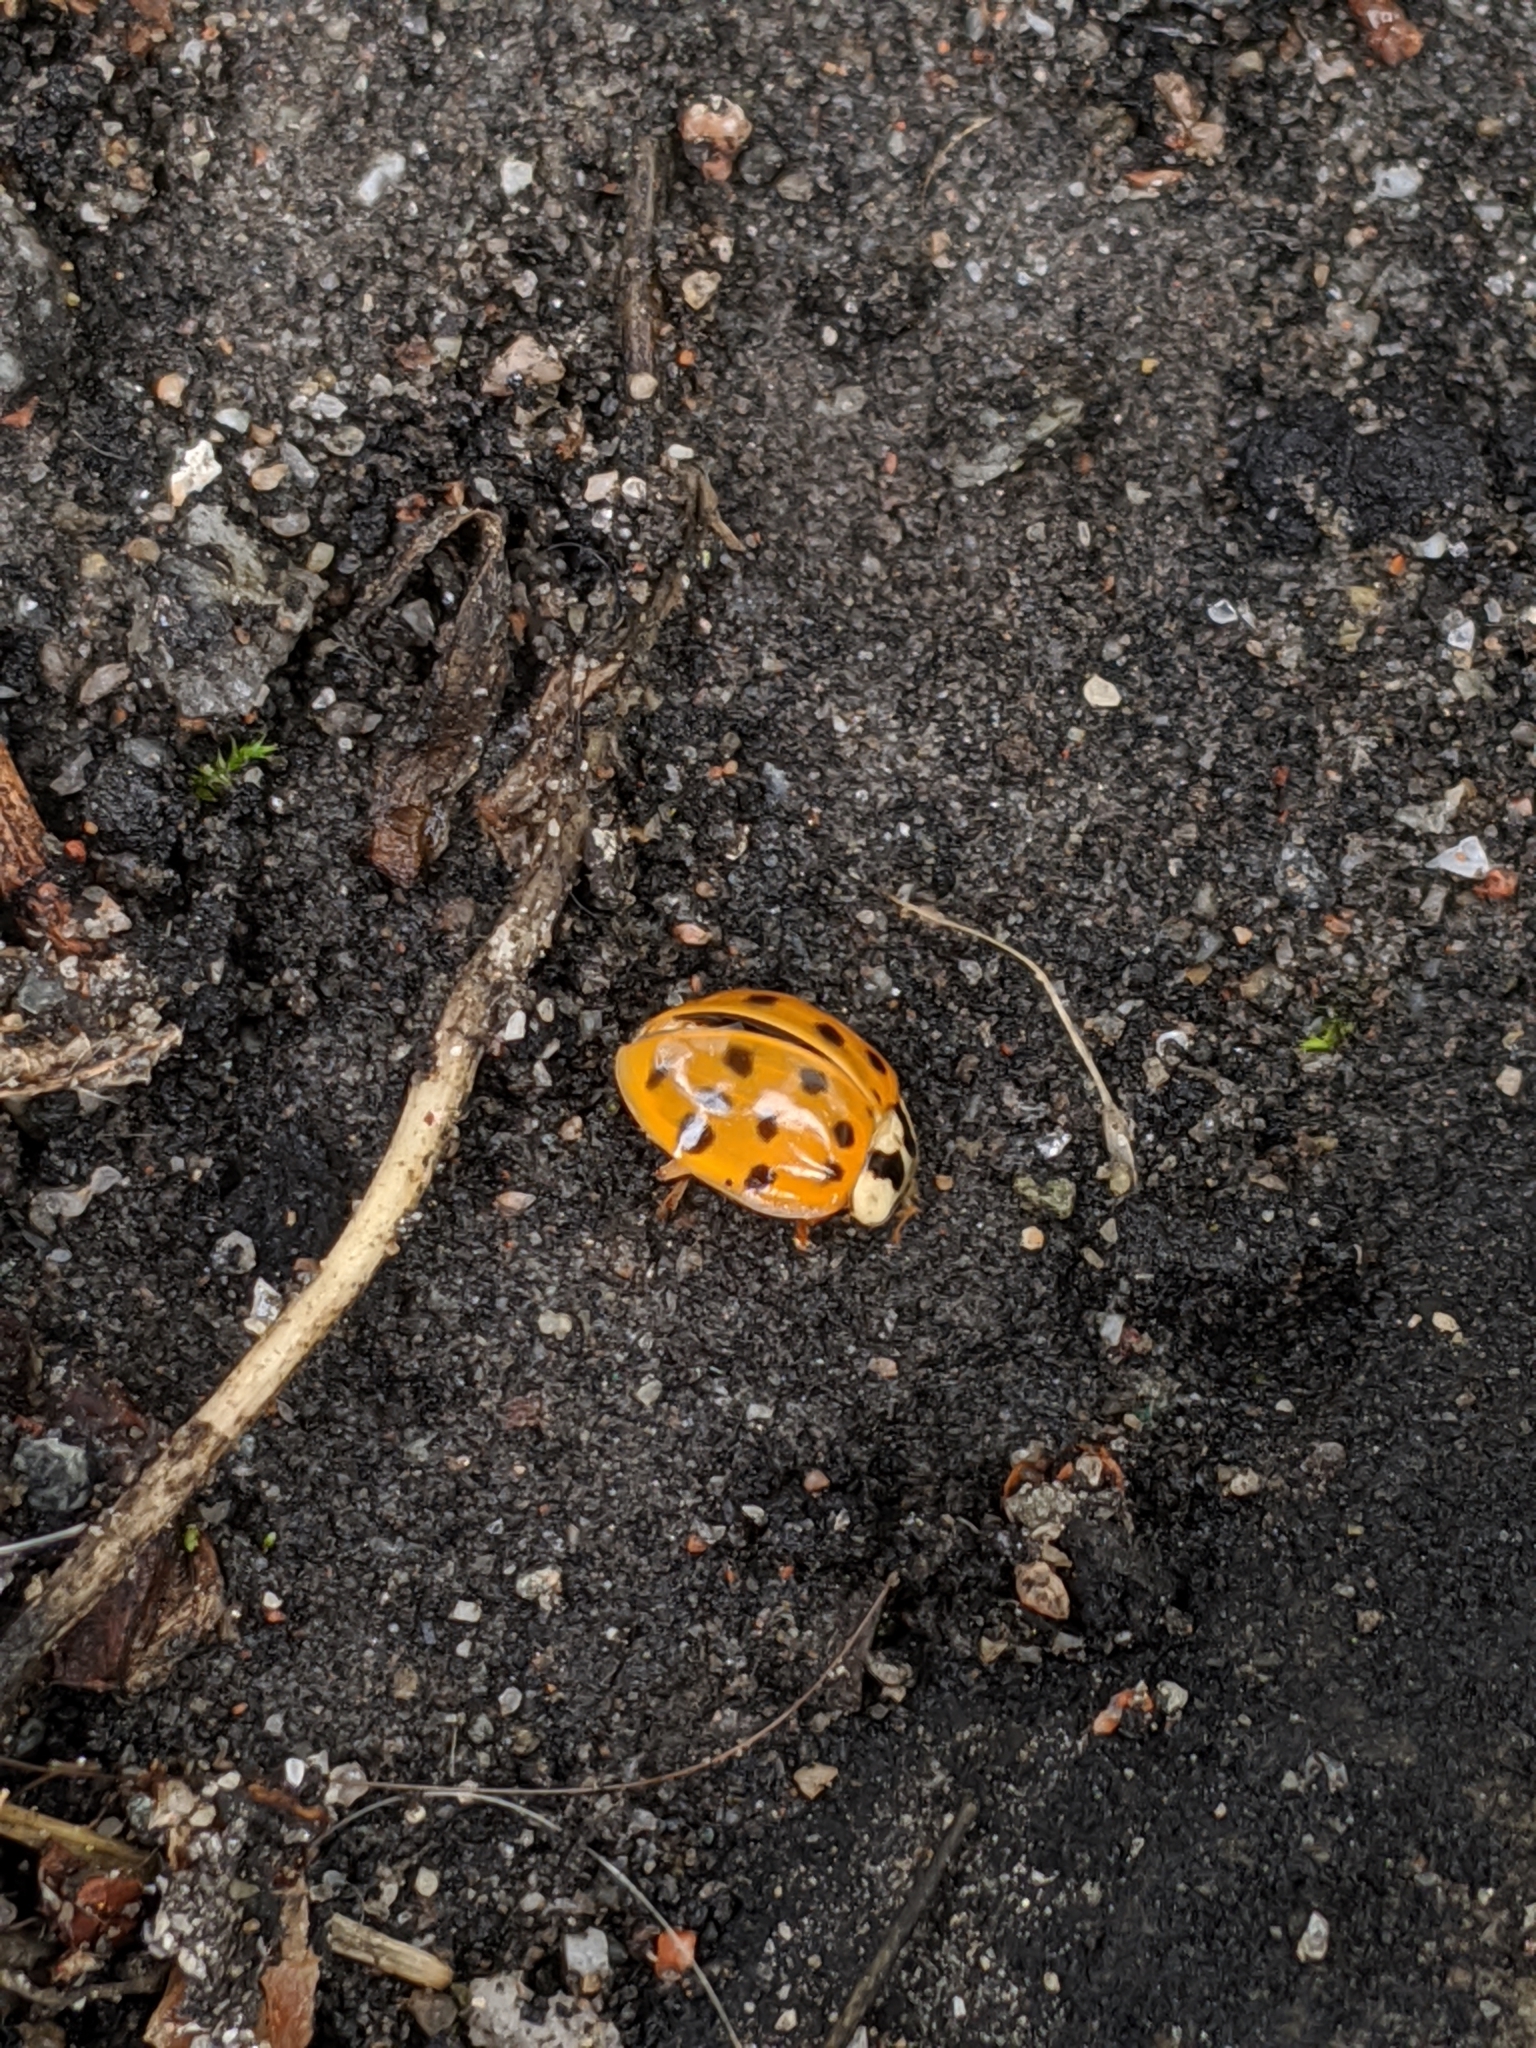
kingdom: Animalia
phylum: Arthropoda
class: Insecta
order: Coleoptera
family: Coccinellidae
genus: Harmonia
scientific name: Harmonia axyridis
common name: Harlequin ladybird
